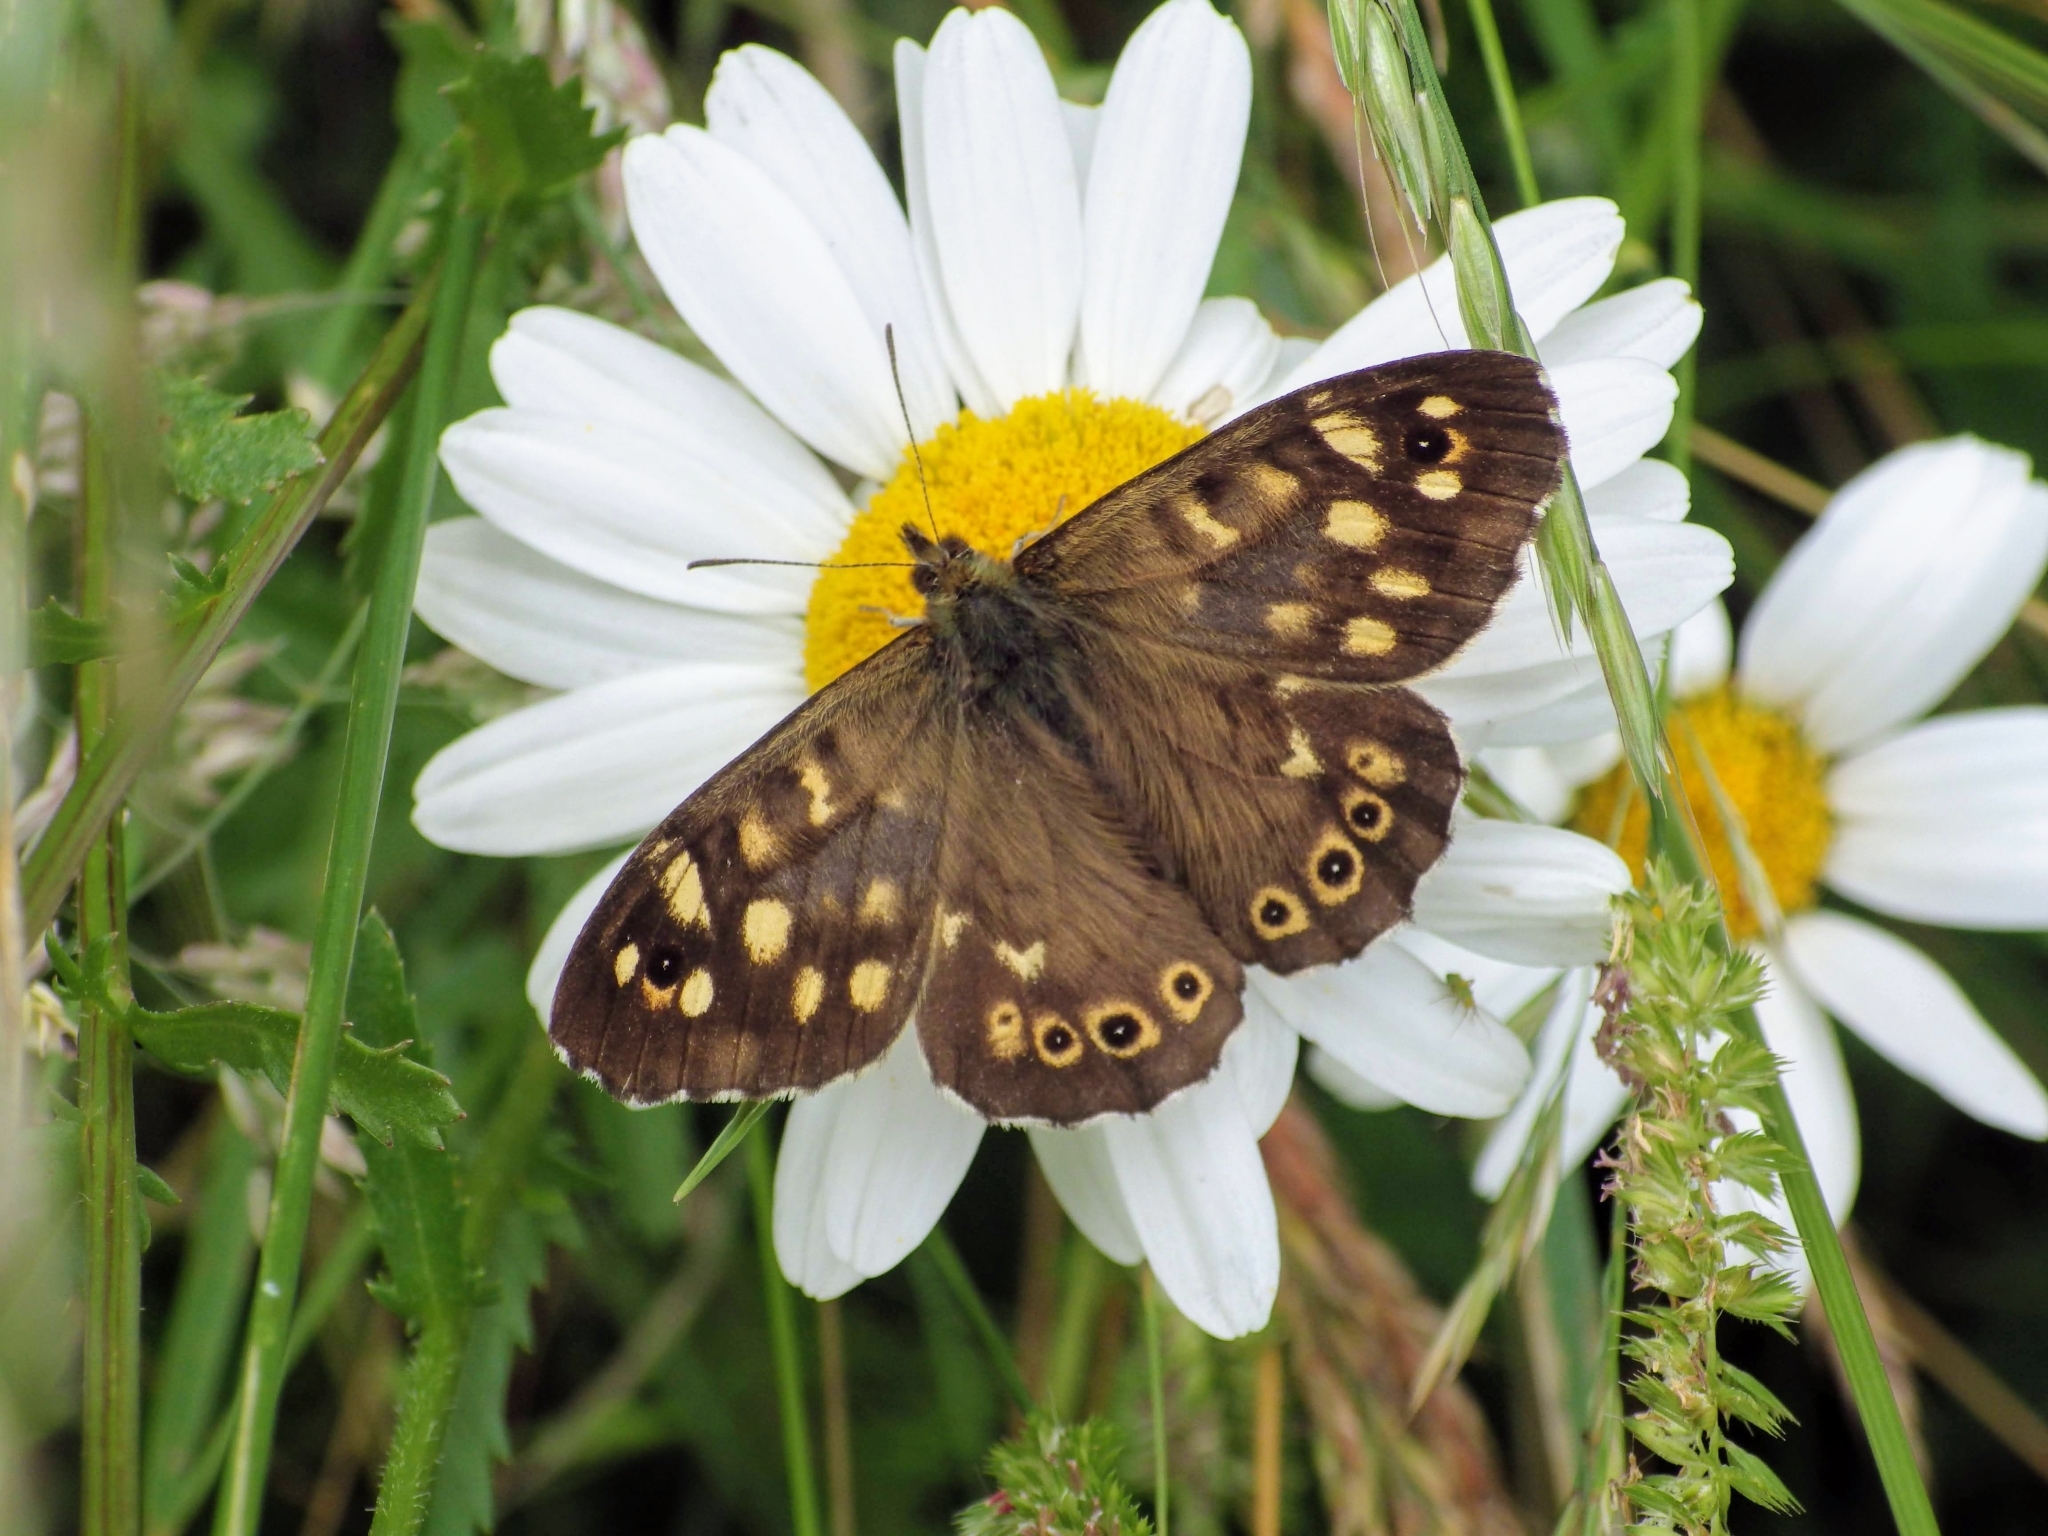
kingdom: Animalia
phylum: Arthropoda
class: Insecta
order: Lepidoptera
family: Nymphalidae
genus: Pararge
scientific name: Pararge aegeria
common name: Speckled wood
